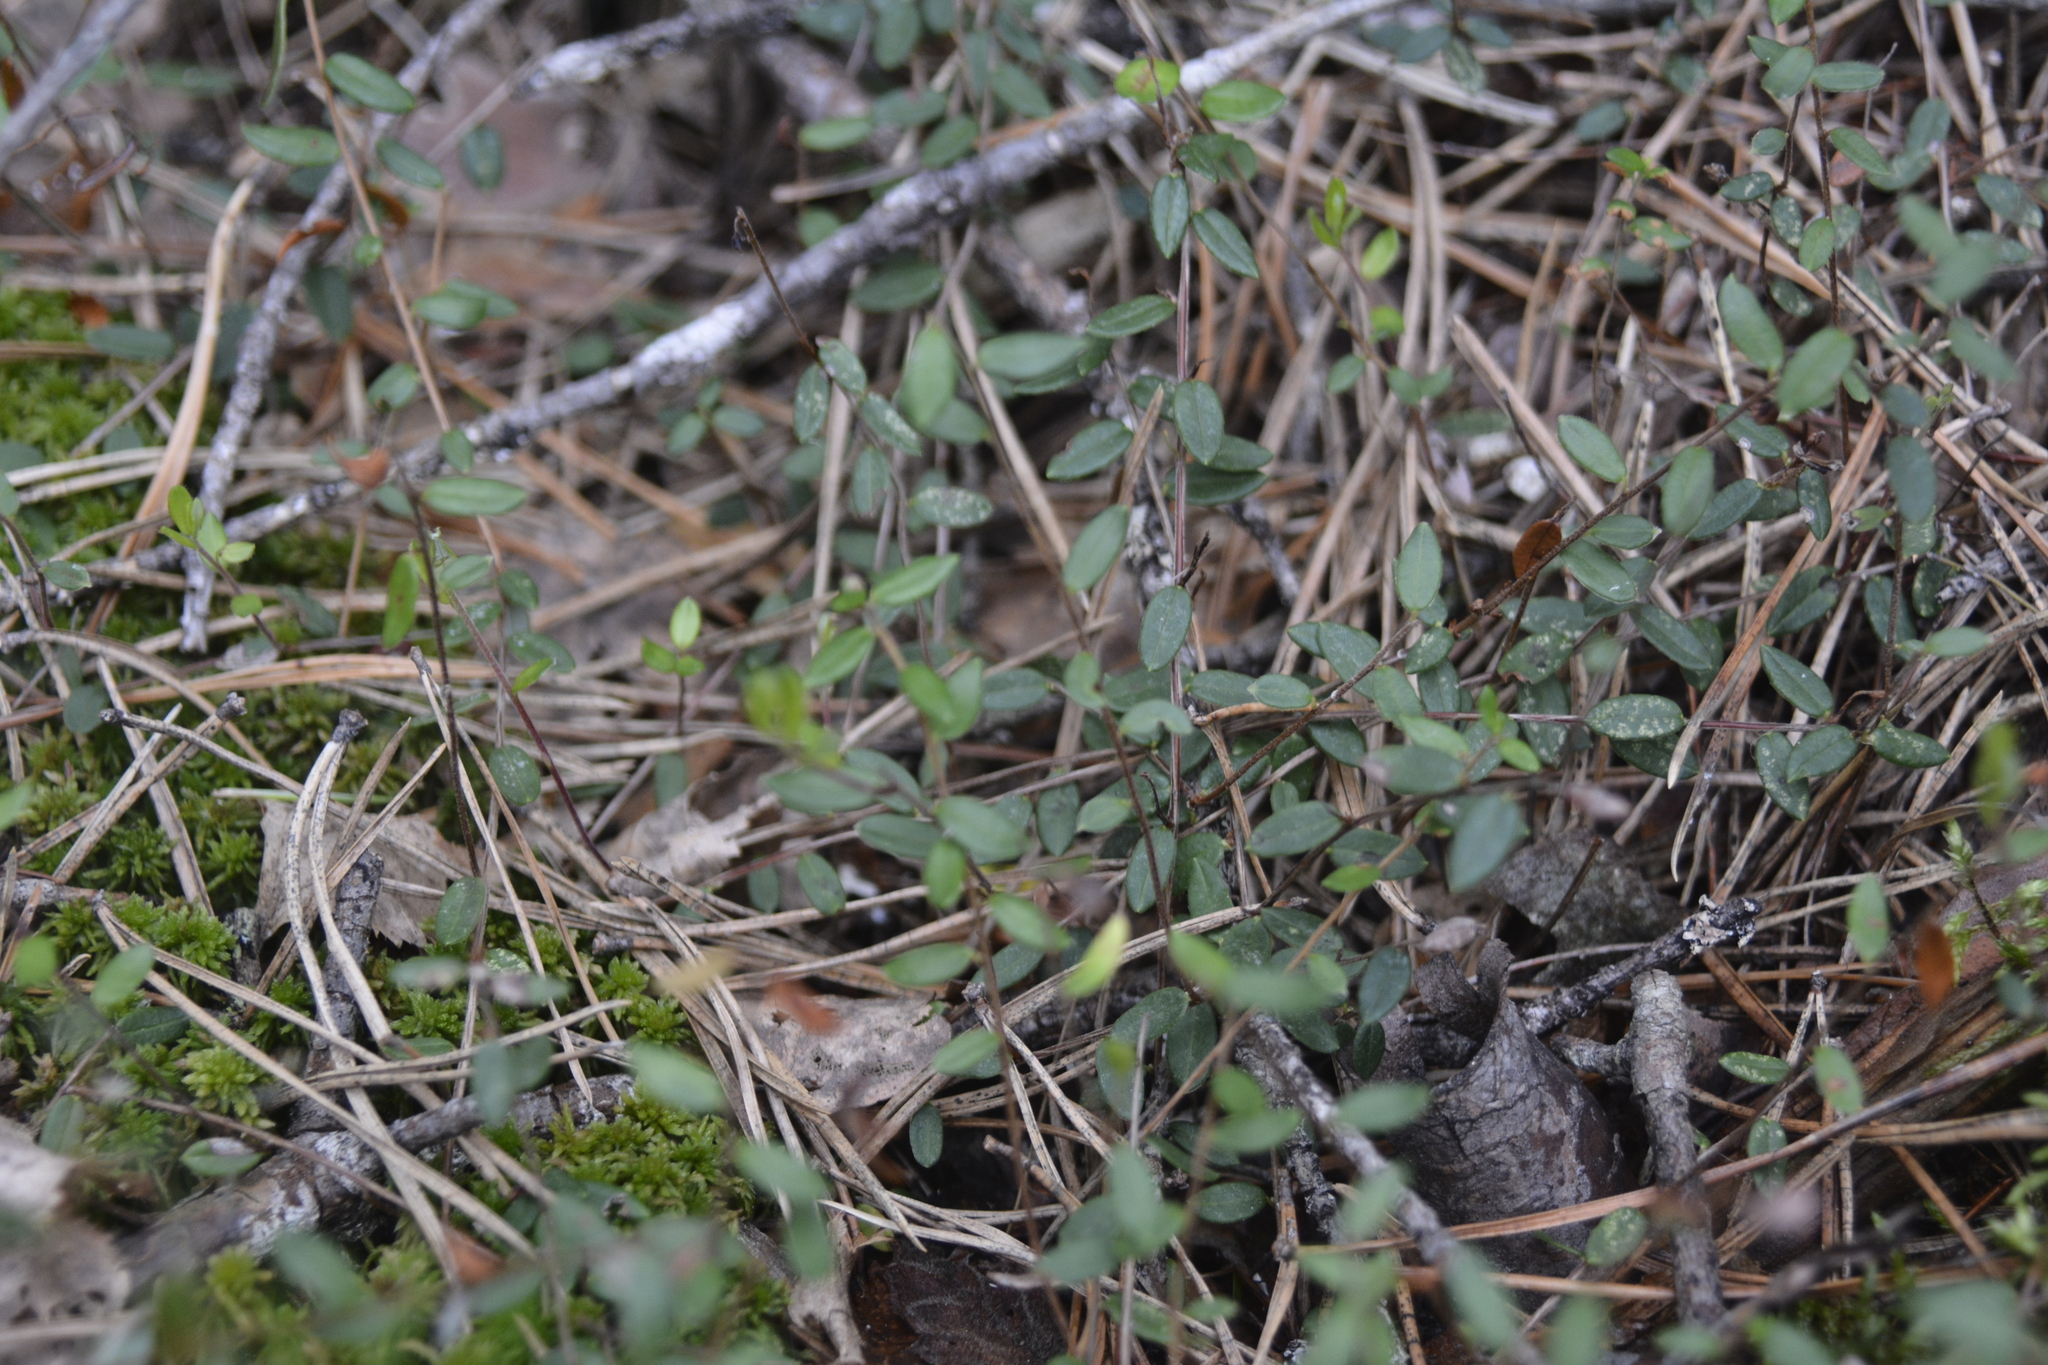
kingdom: Plantae
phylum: Tracheophyta
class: Magnoliopsida
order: Ericales
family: Ericaceae
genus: Vaccinium
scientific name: Vaccinium oxycoccos
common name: Cranberry
